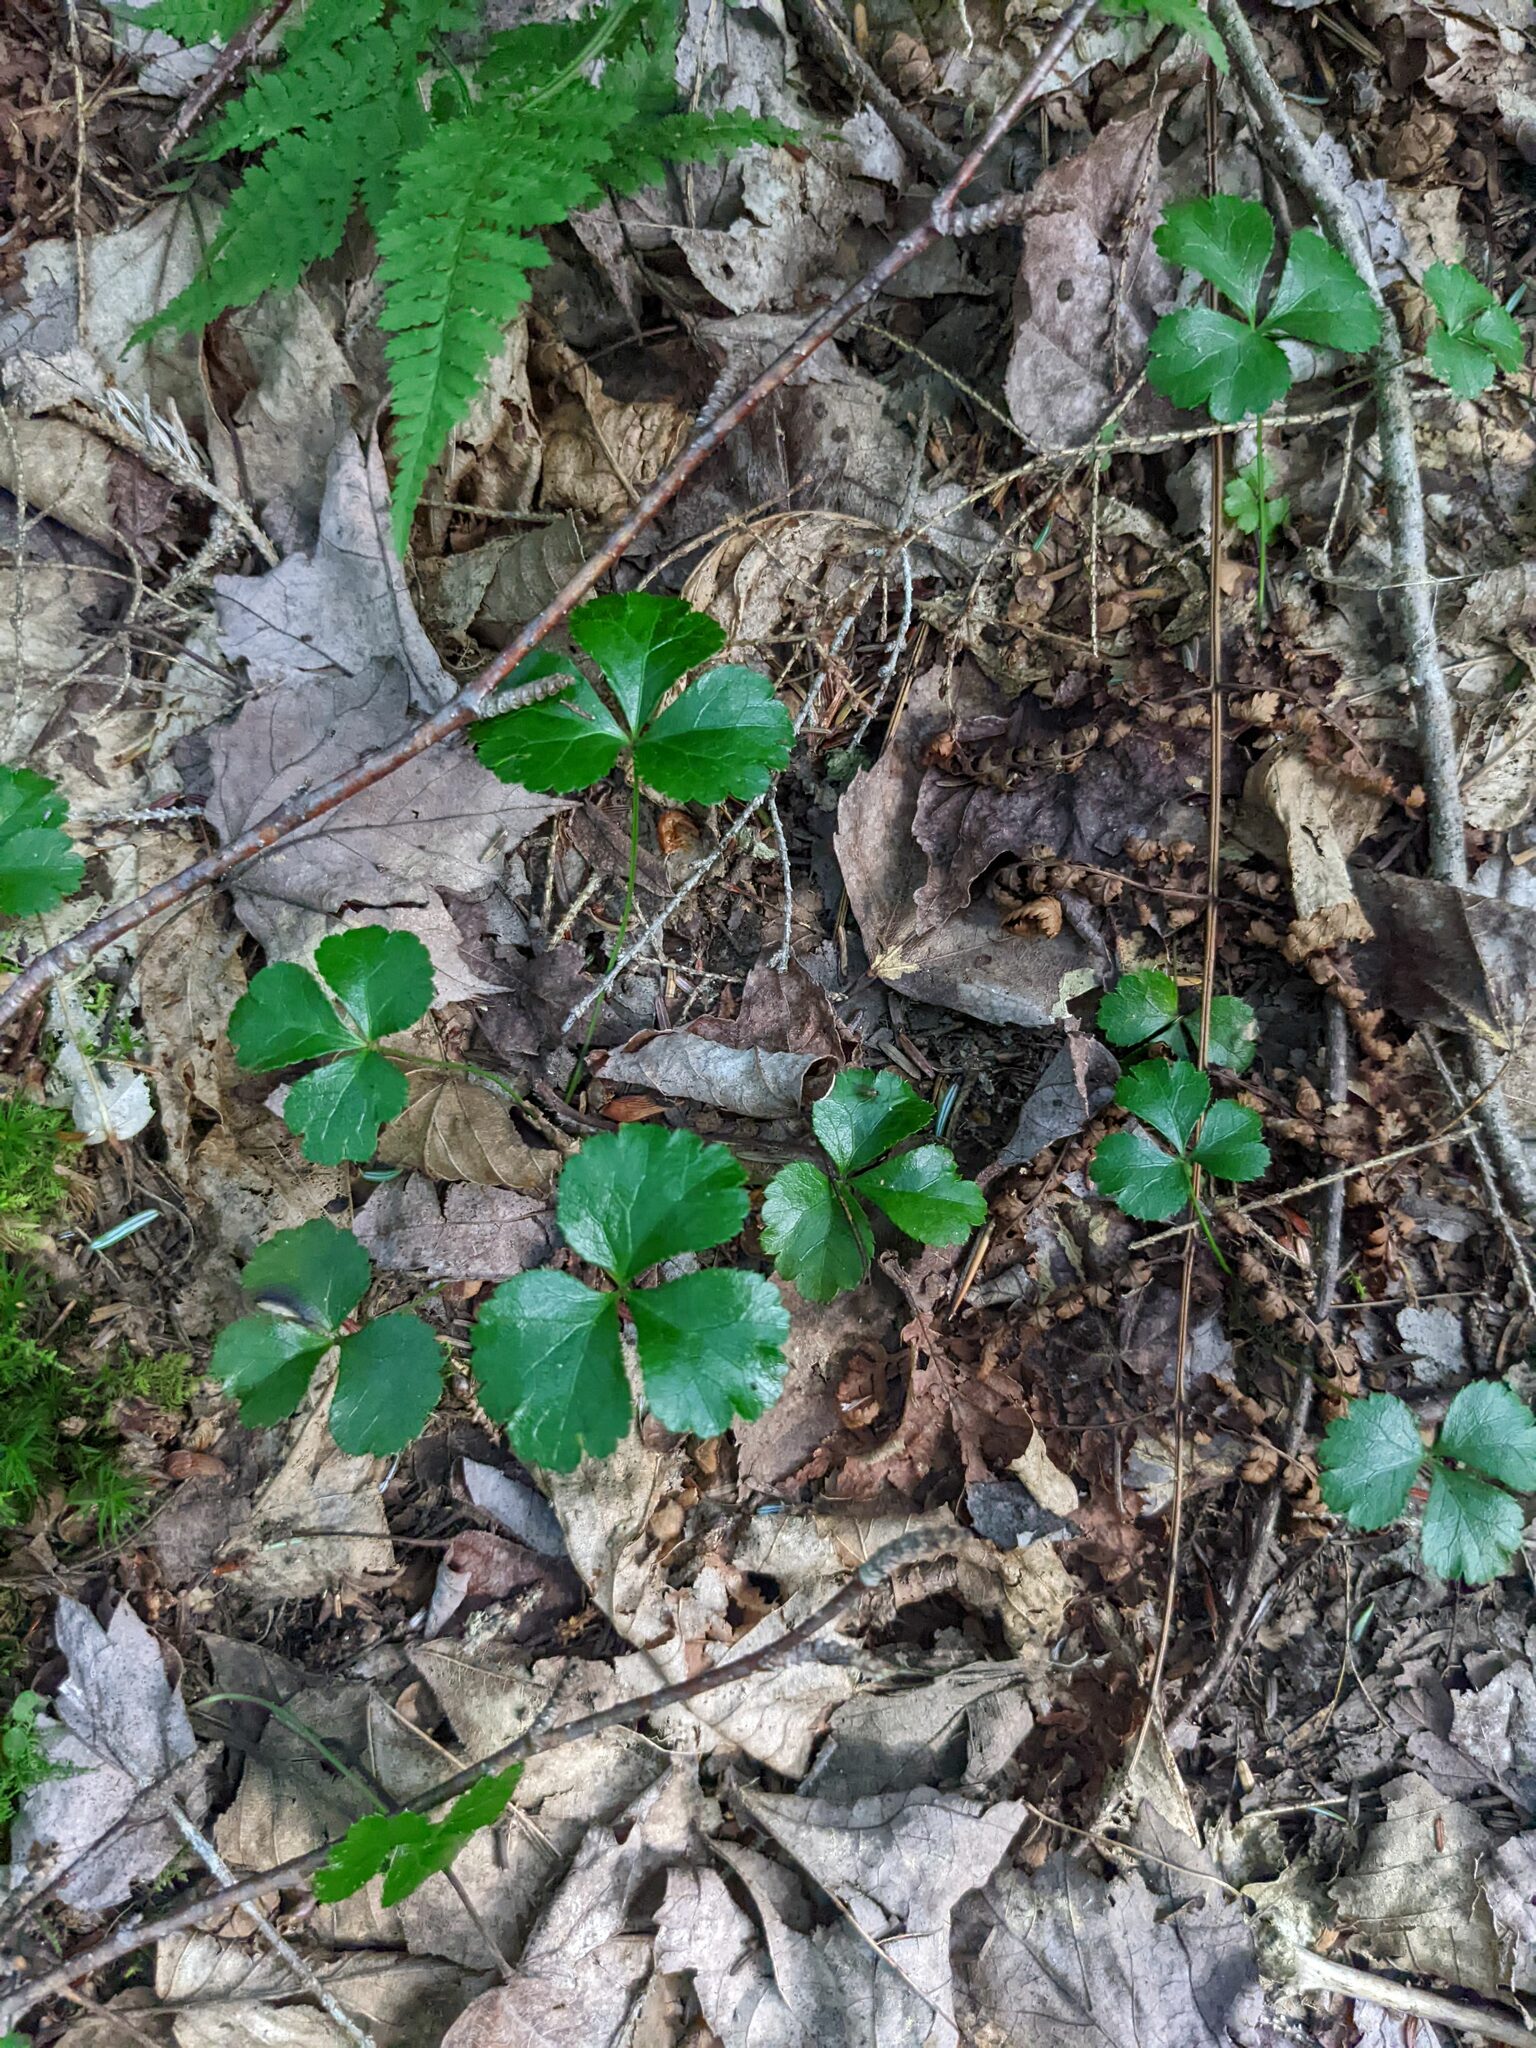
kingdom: Plantae
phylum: Tracheophyta
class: Magnoliopsida
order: Ranunculales
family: Ranunculaceae
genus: Coptis
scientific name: Coptis trifolia
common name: Canker-root
